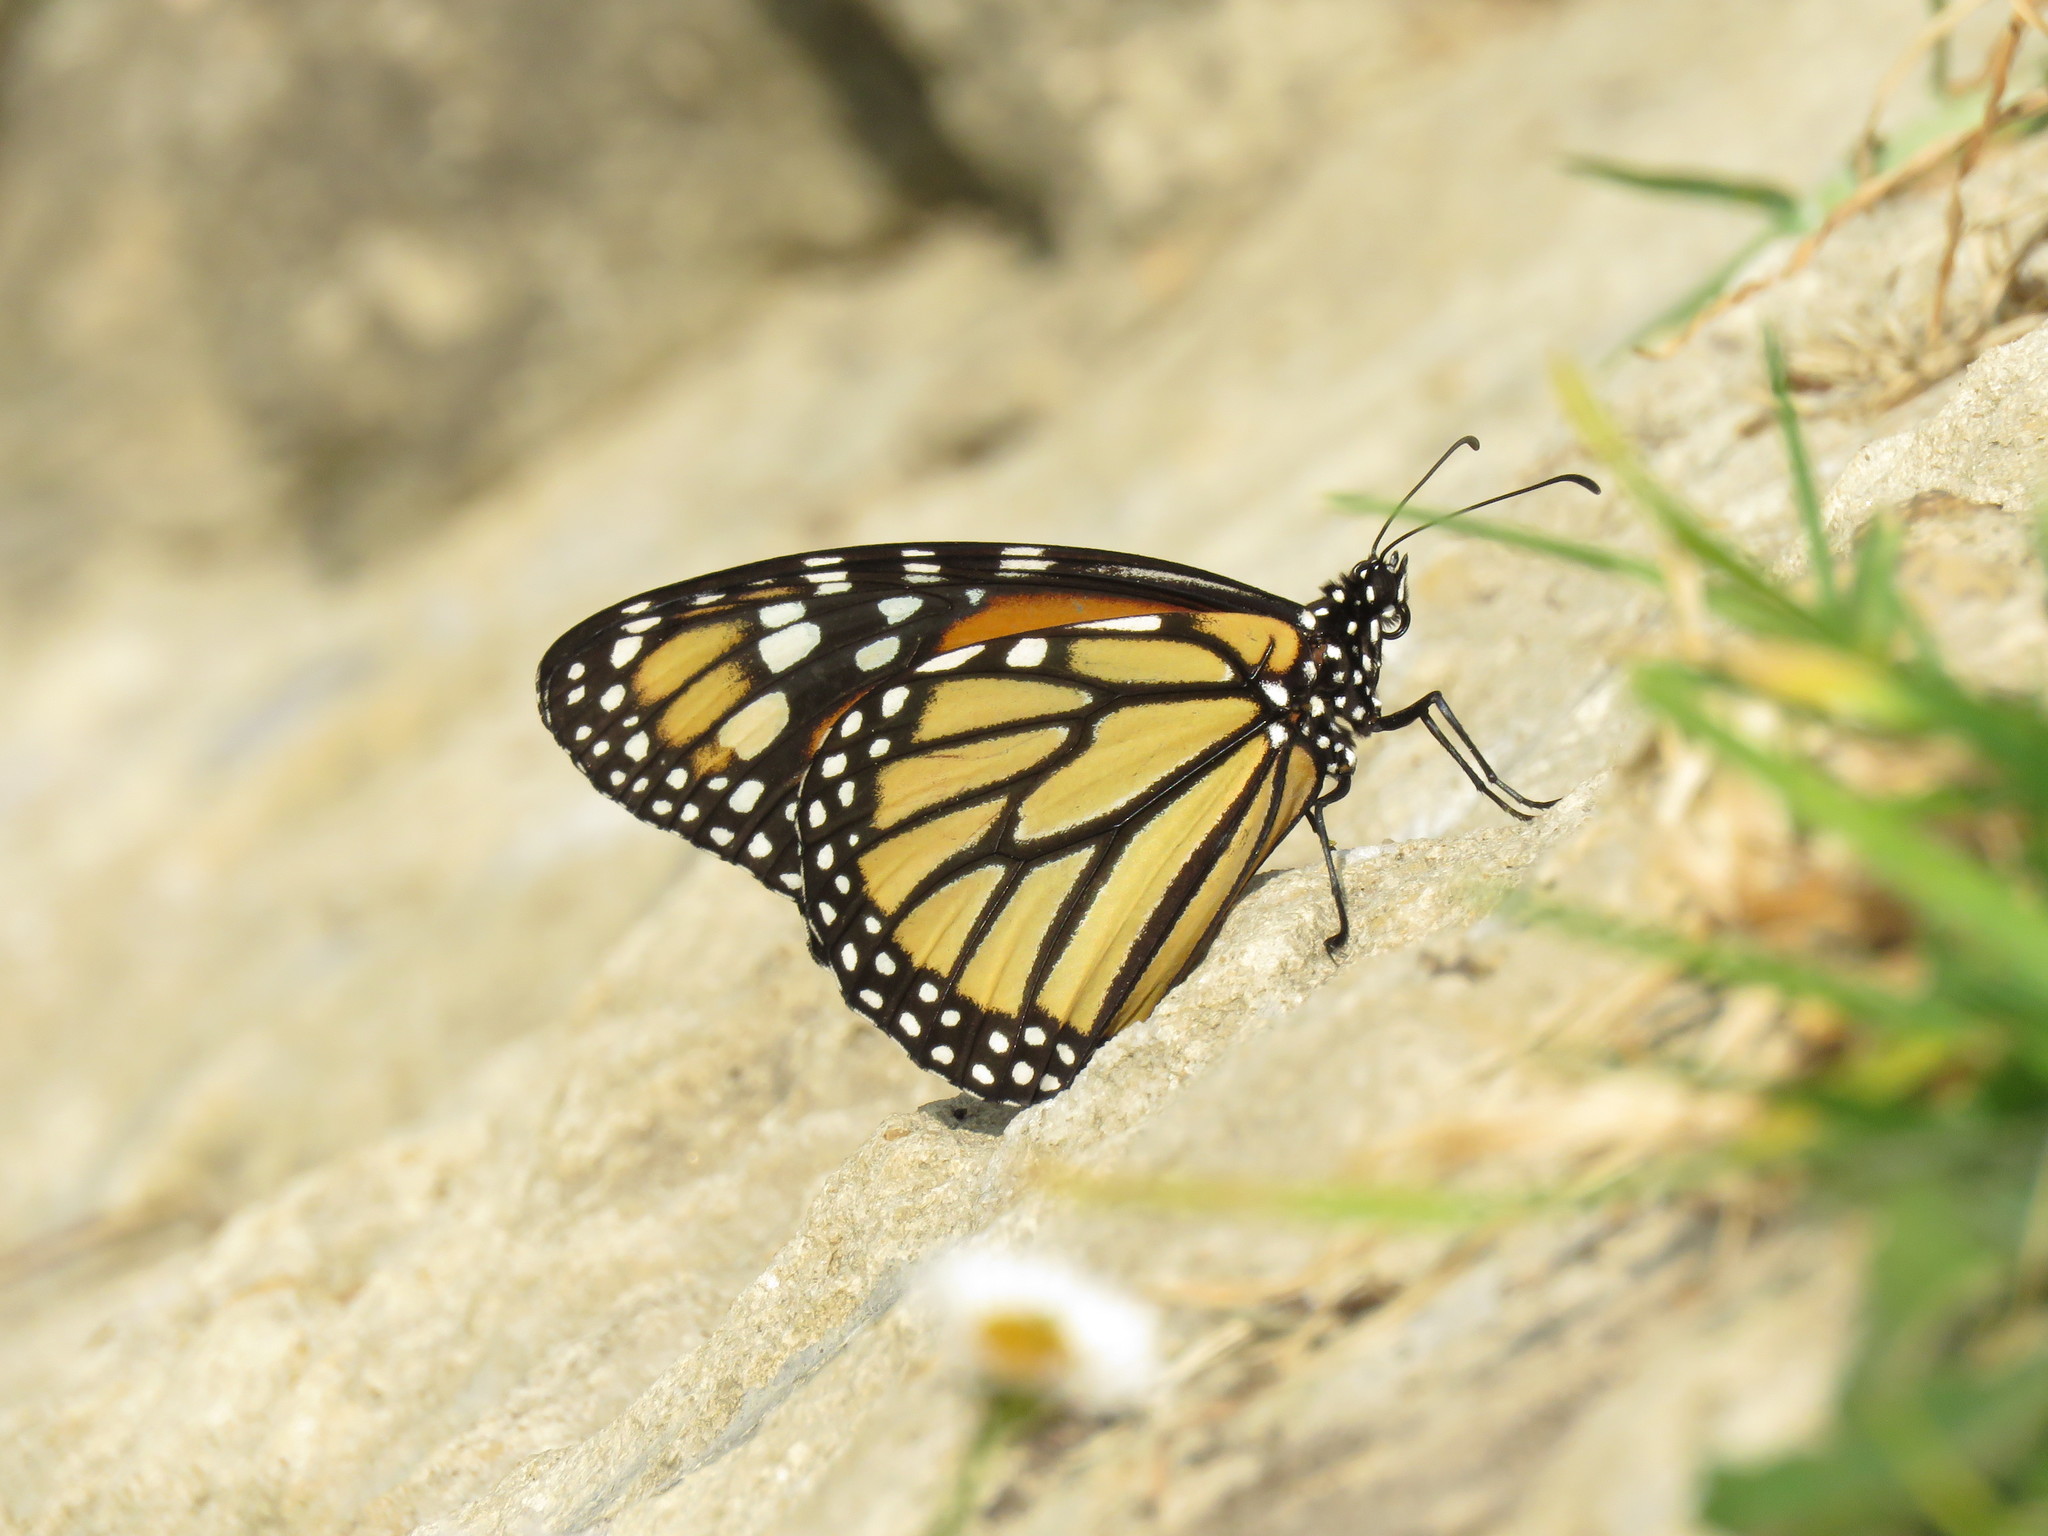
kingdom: Animalia
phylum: Arthropoda
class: Insecta
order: Lepidoptera
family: Nymphalidae
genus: Danaus
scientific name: Danaus plexippus
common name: Monarch
